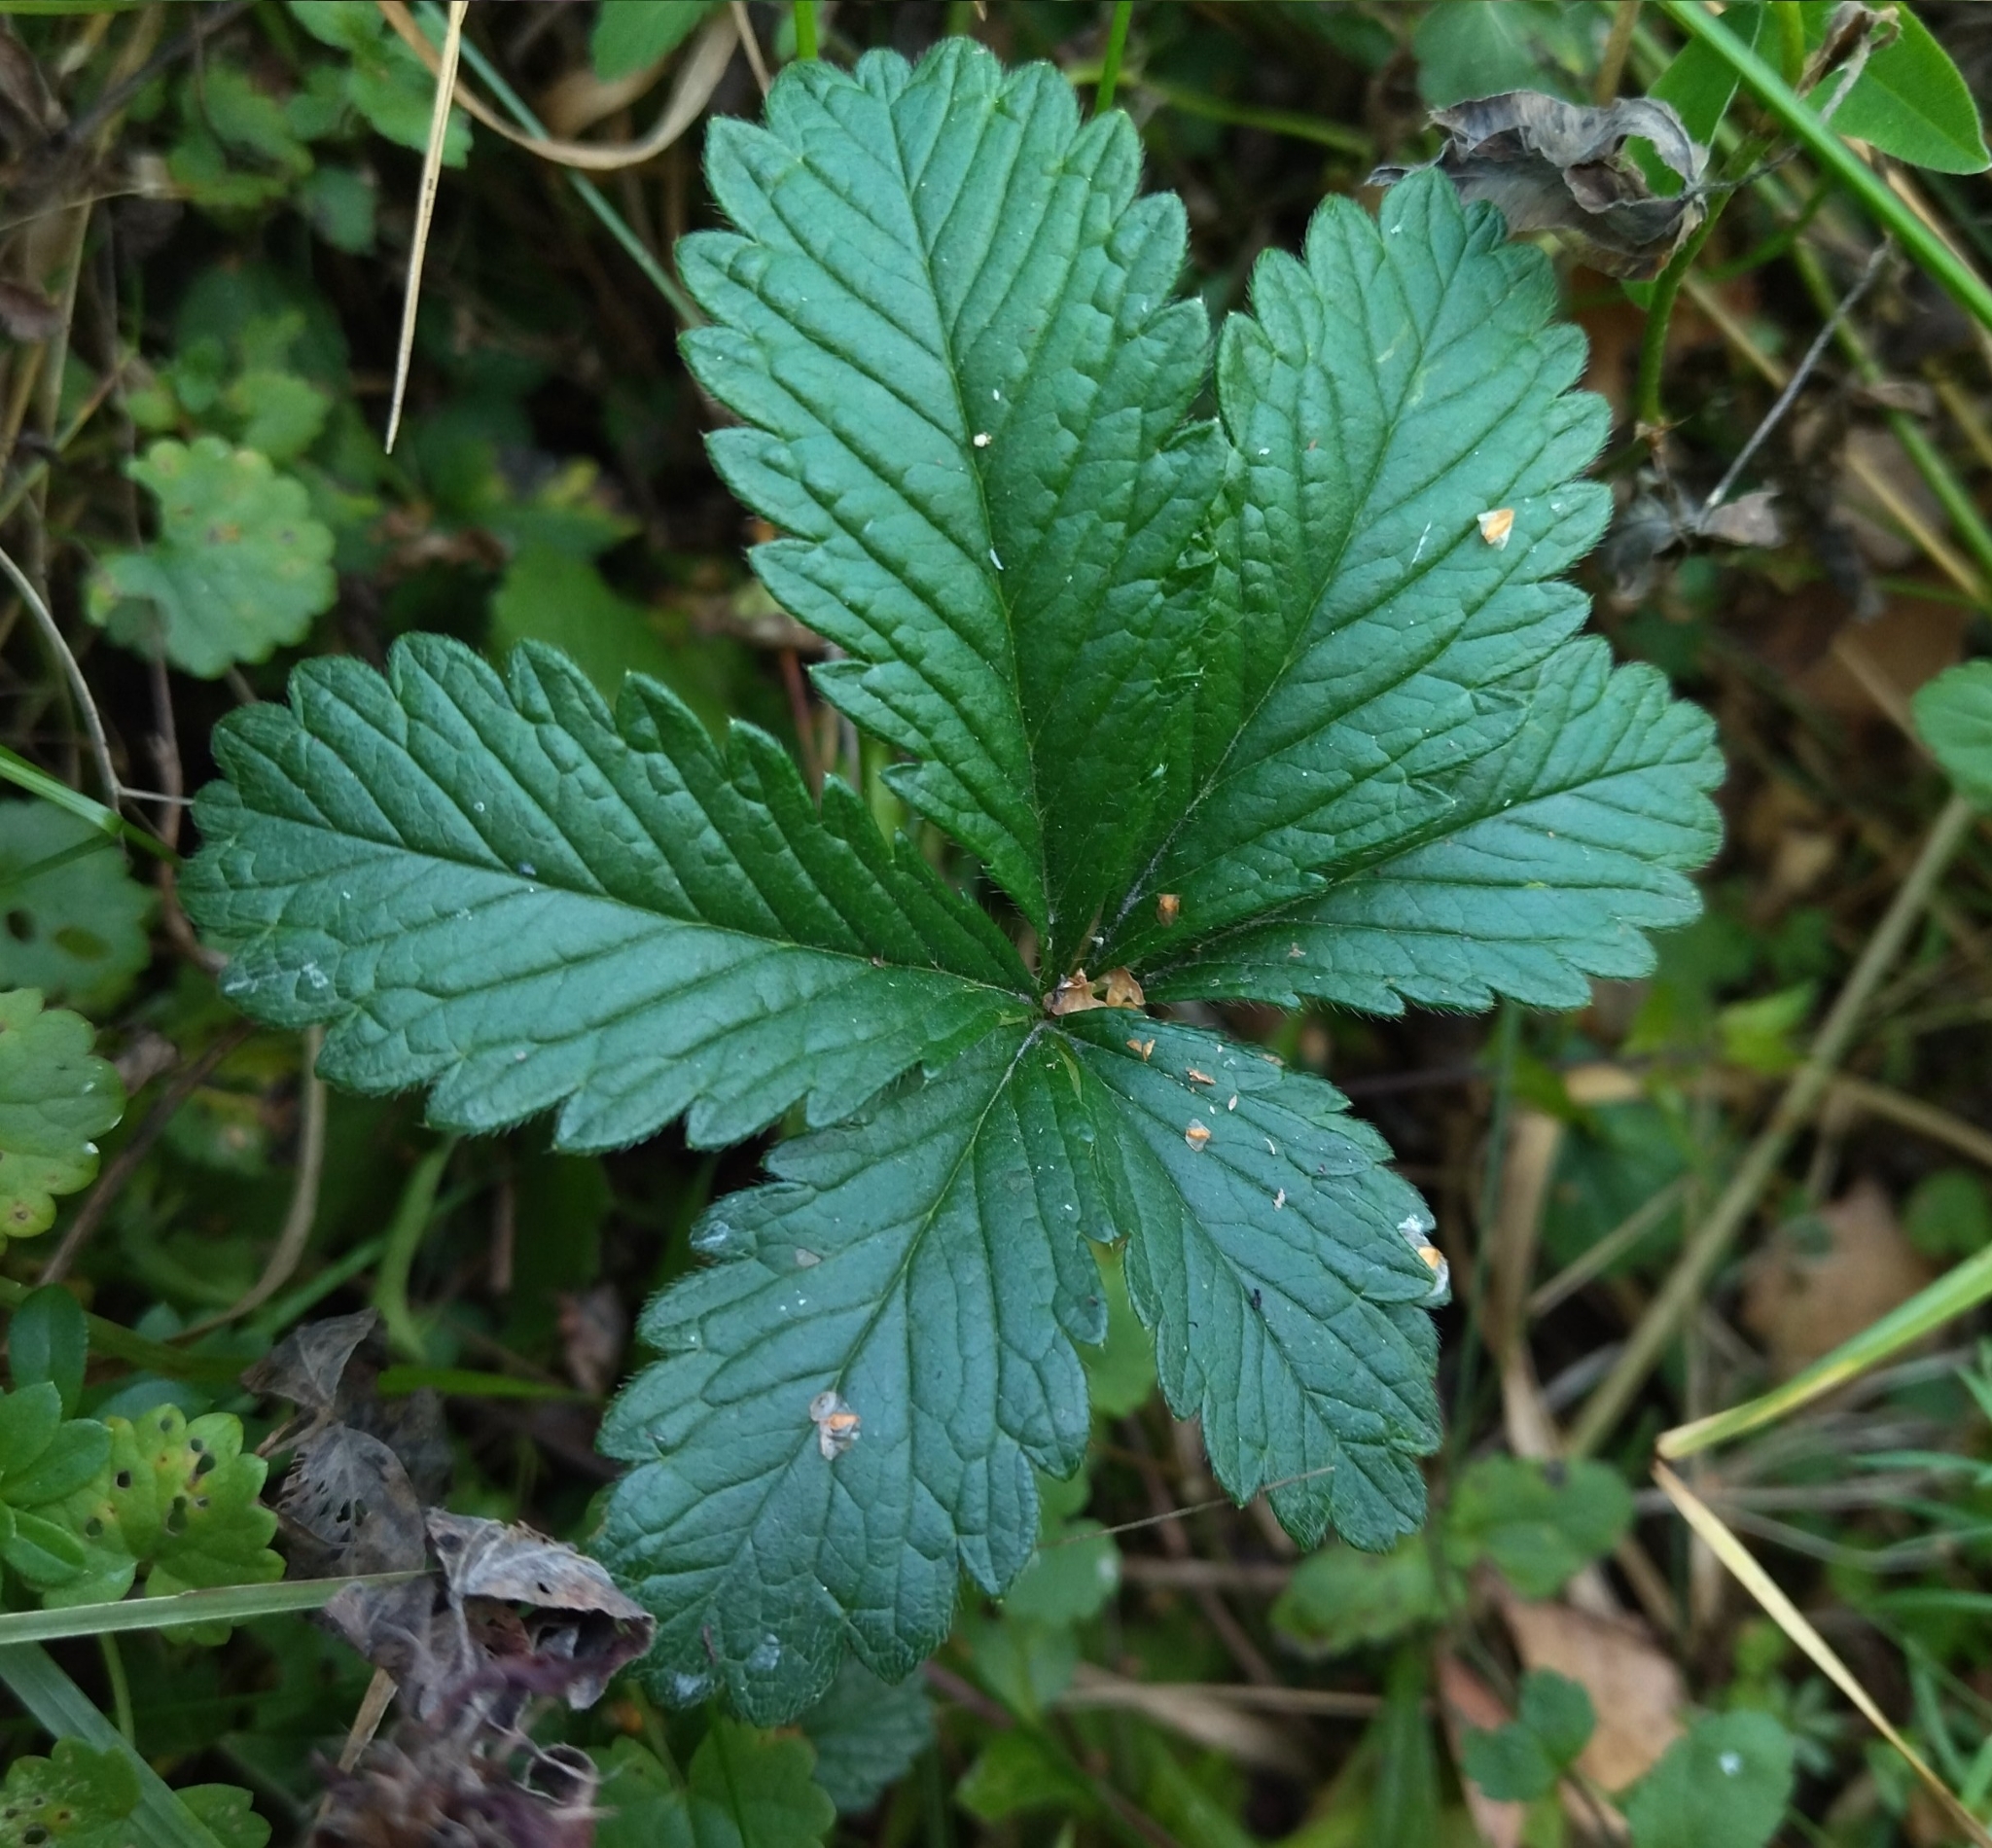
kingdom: Plantae
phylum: Tracheophyta
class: Magnoliopsida
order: Rosales
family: Rosaceae
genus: Potentilla
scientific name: Potentilla thuringiaca
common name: European cinquefoil
